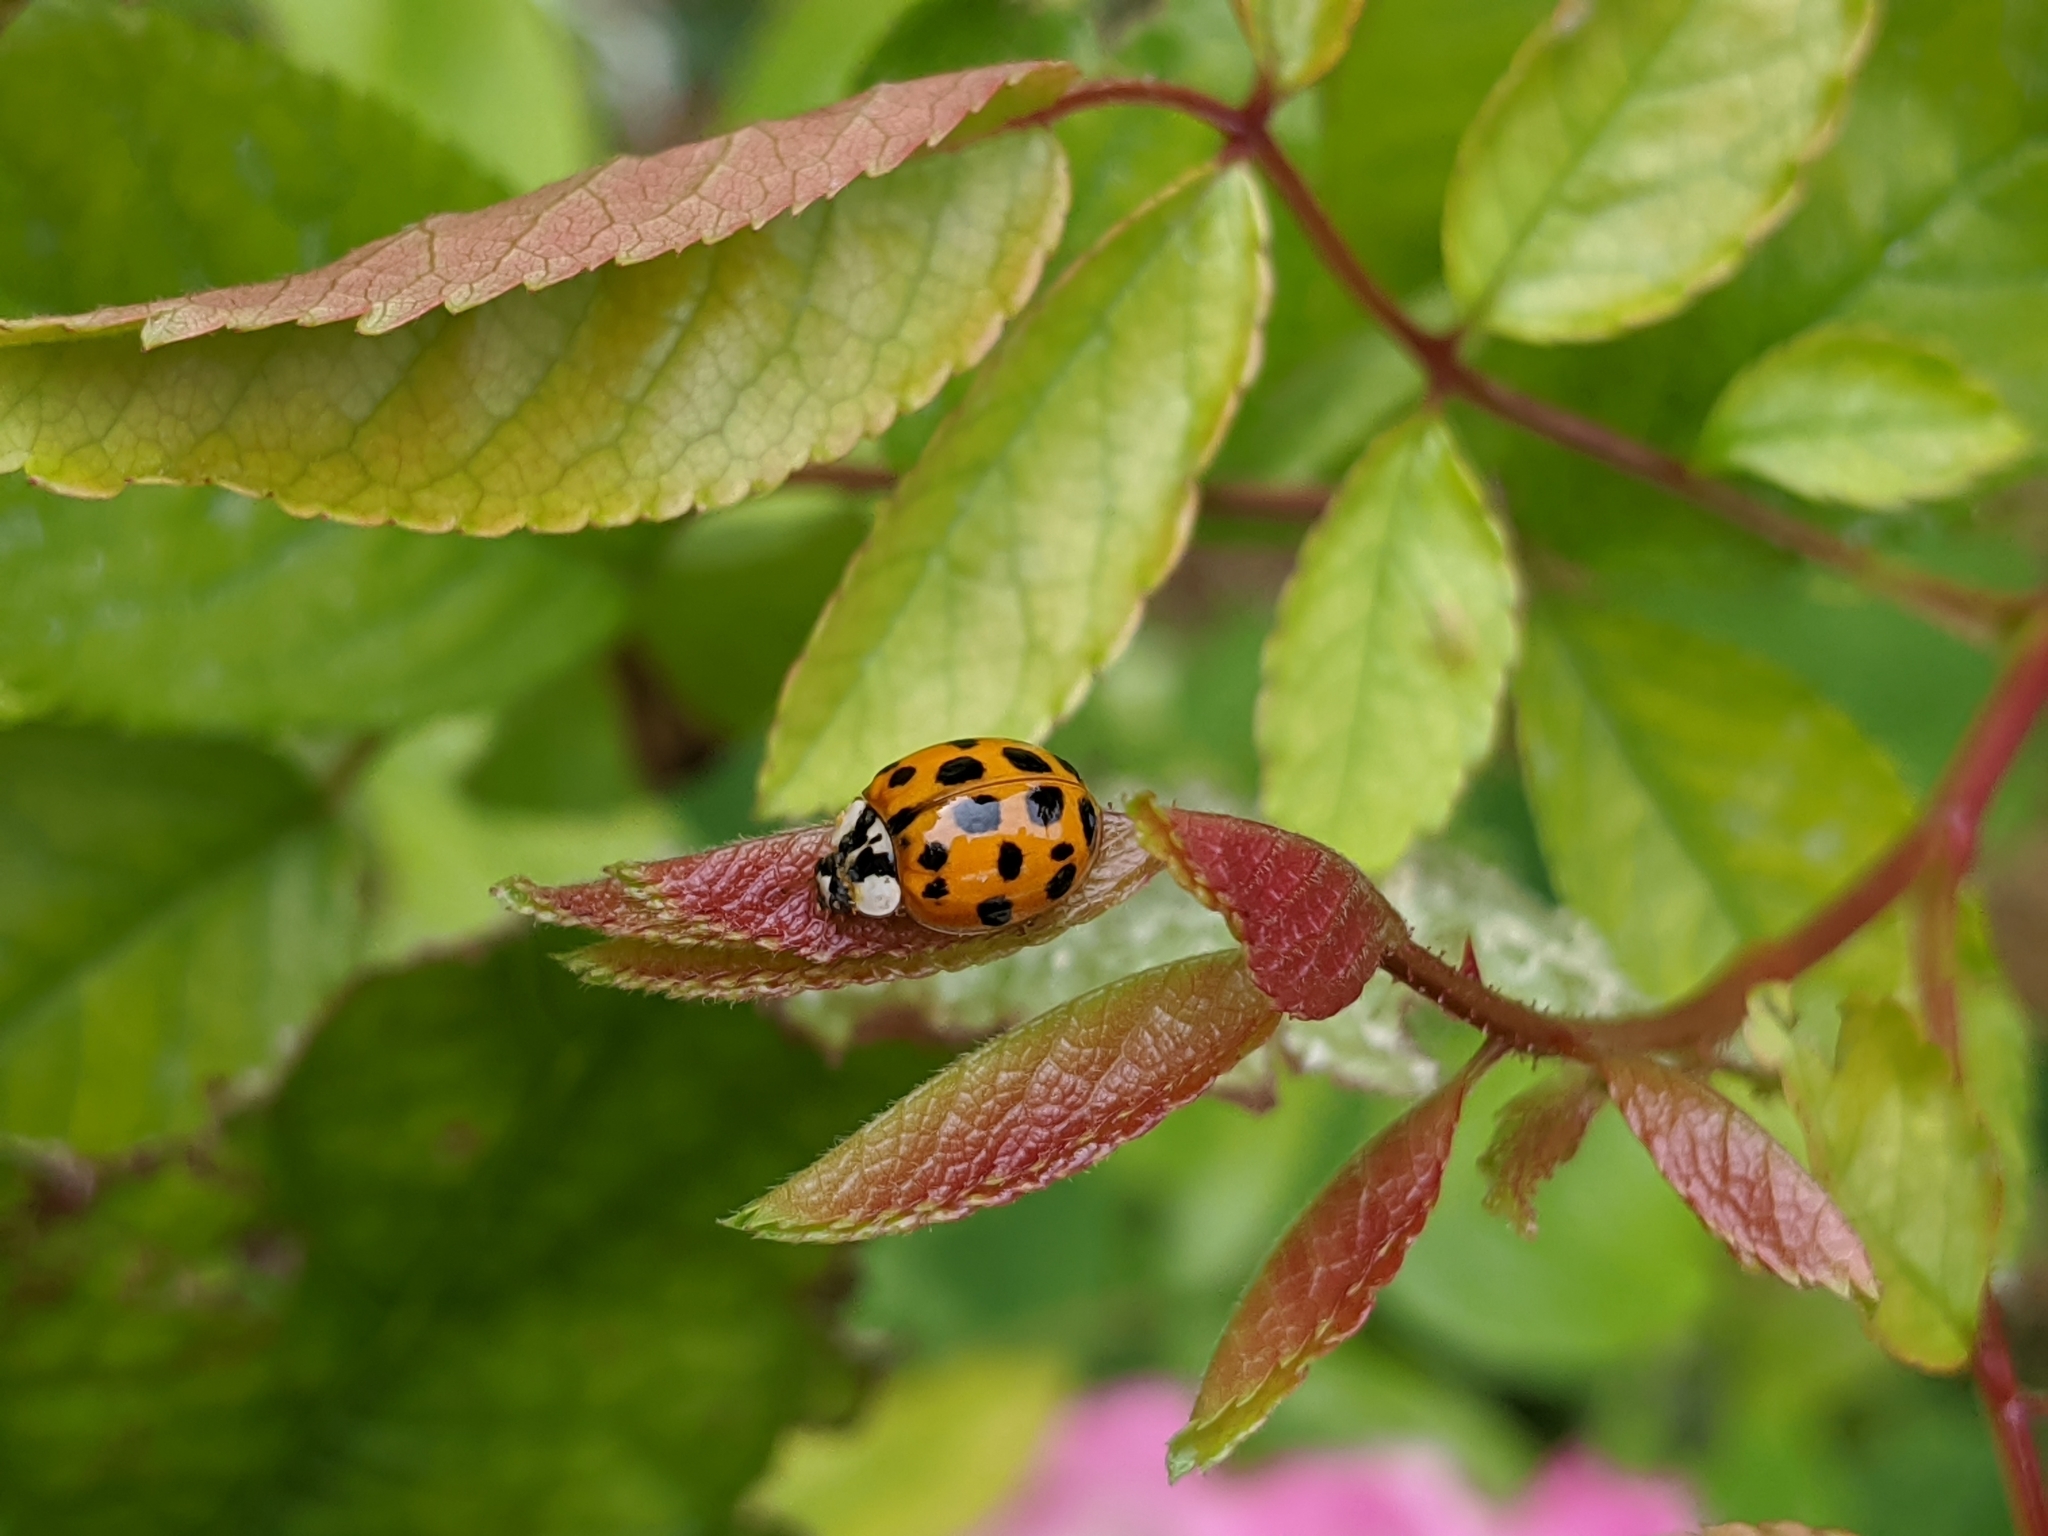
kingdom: Animalia
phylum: Arthropoda
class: Insecta
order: Coleoptera
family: Coccinellidae
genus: Harmonia
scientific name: Harmonia axyridis
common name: Harlequin ladybird
